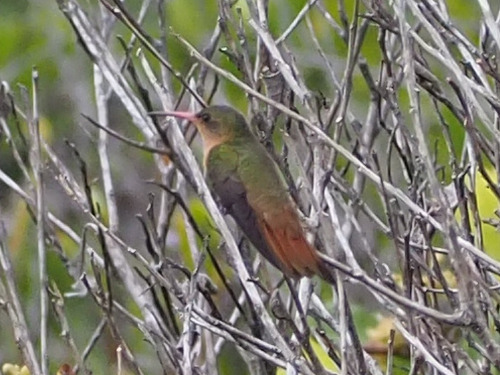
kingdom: Animalia
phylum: Chordata
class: Aves
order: Apodiformes
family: Trochilidae
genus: Amazilia
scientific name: Amazilia rutila
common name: Cinnamon hummingbird
